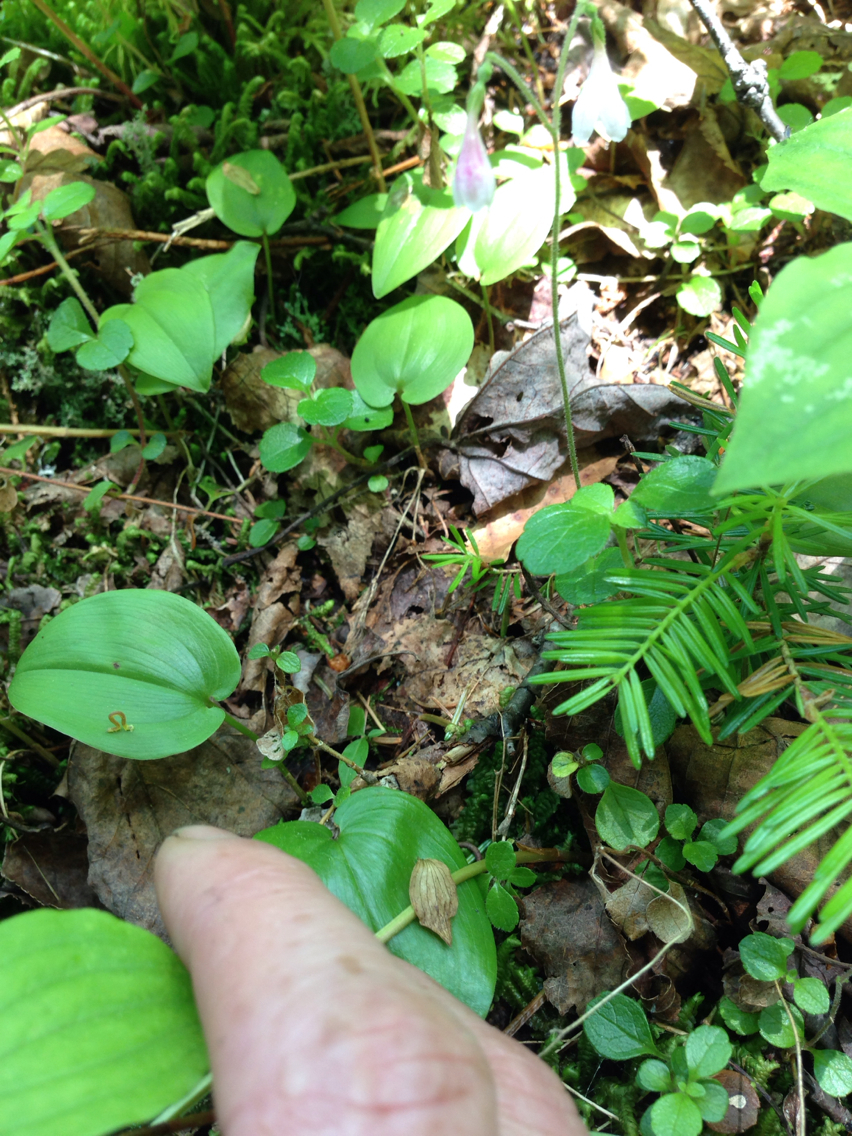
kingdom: Plantae
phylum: Tracheophyta
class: Magnoliopsida
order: Dipsacales
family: Caprifoliaceae
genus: Linnaea
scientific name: Linnaea borealis
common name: Twinflower
